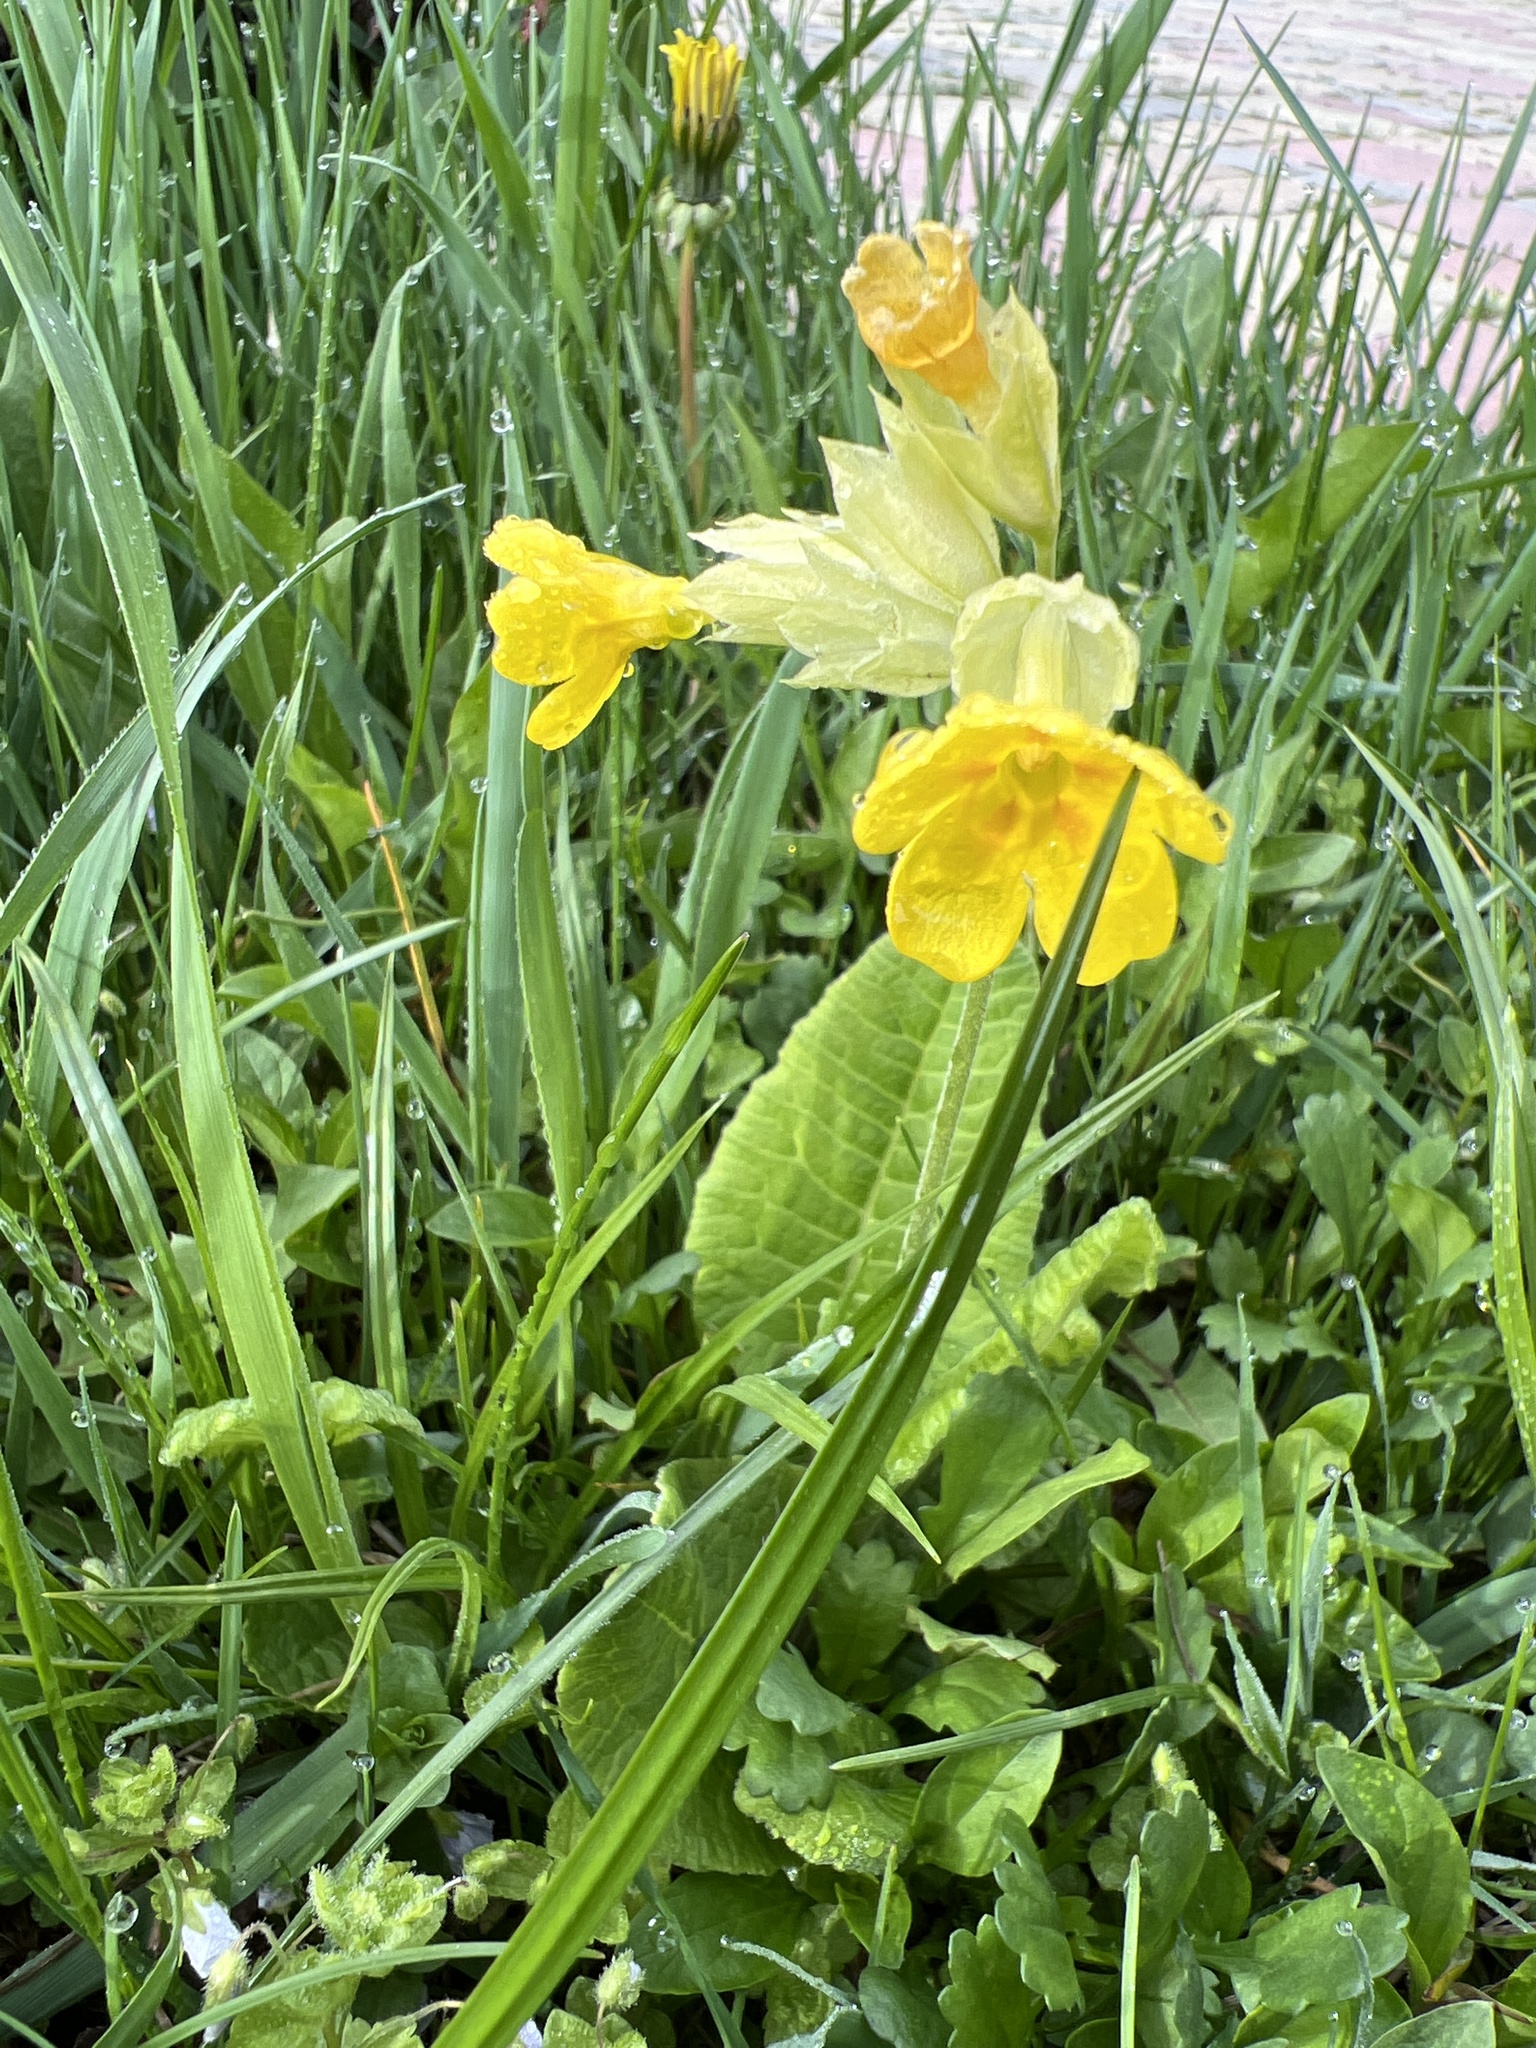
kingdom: Plantae
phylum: Tracheophyta
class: Magnoliopsida
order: Ericales
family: Primulaceae
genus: Primula
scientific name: Primula veris
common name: Cowslip
